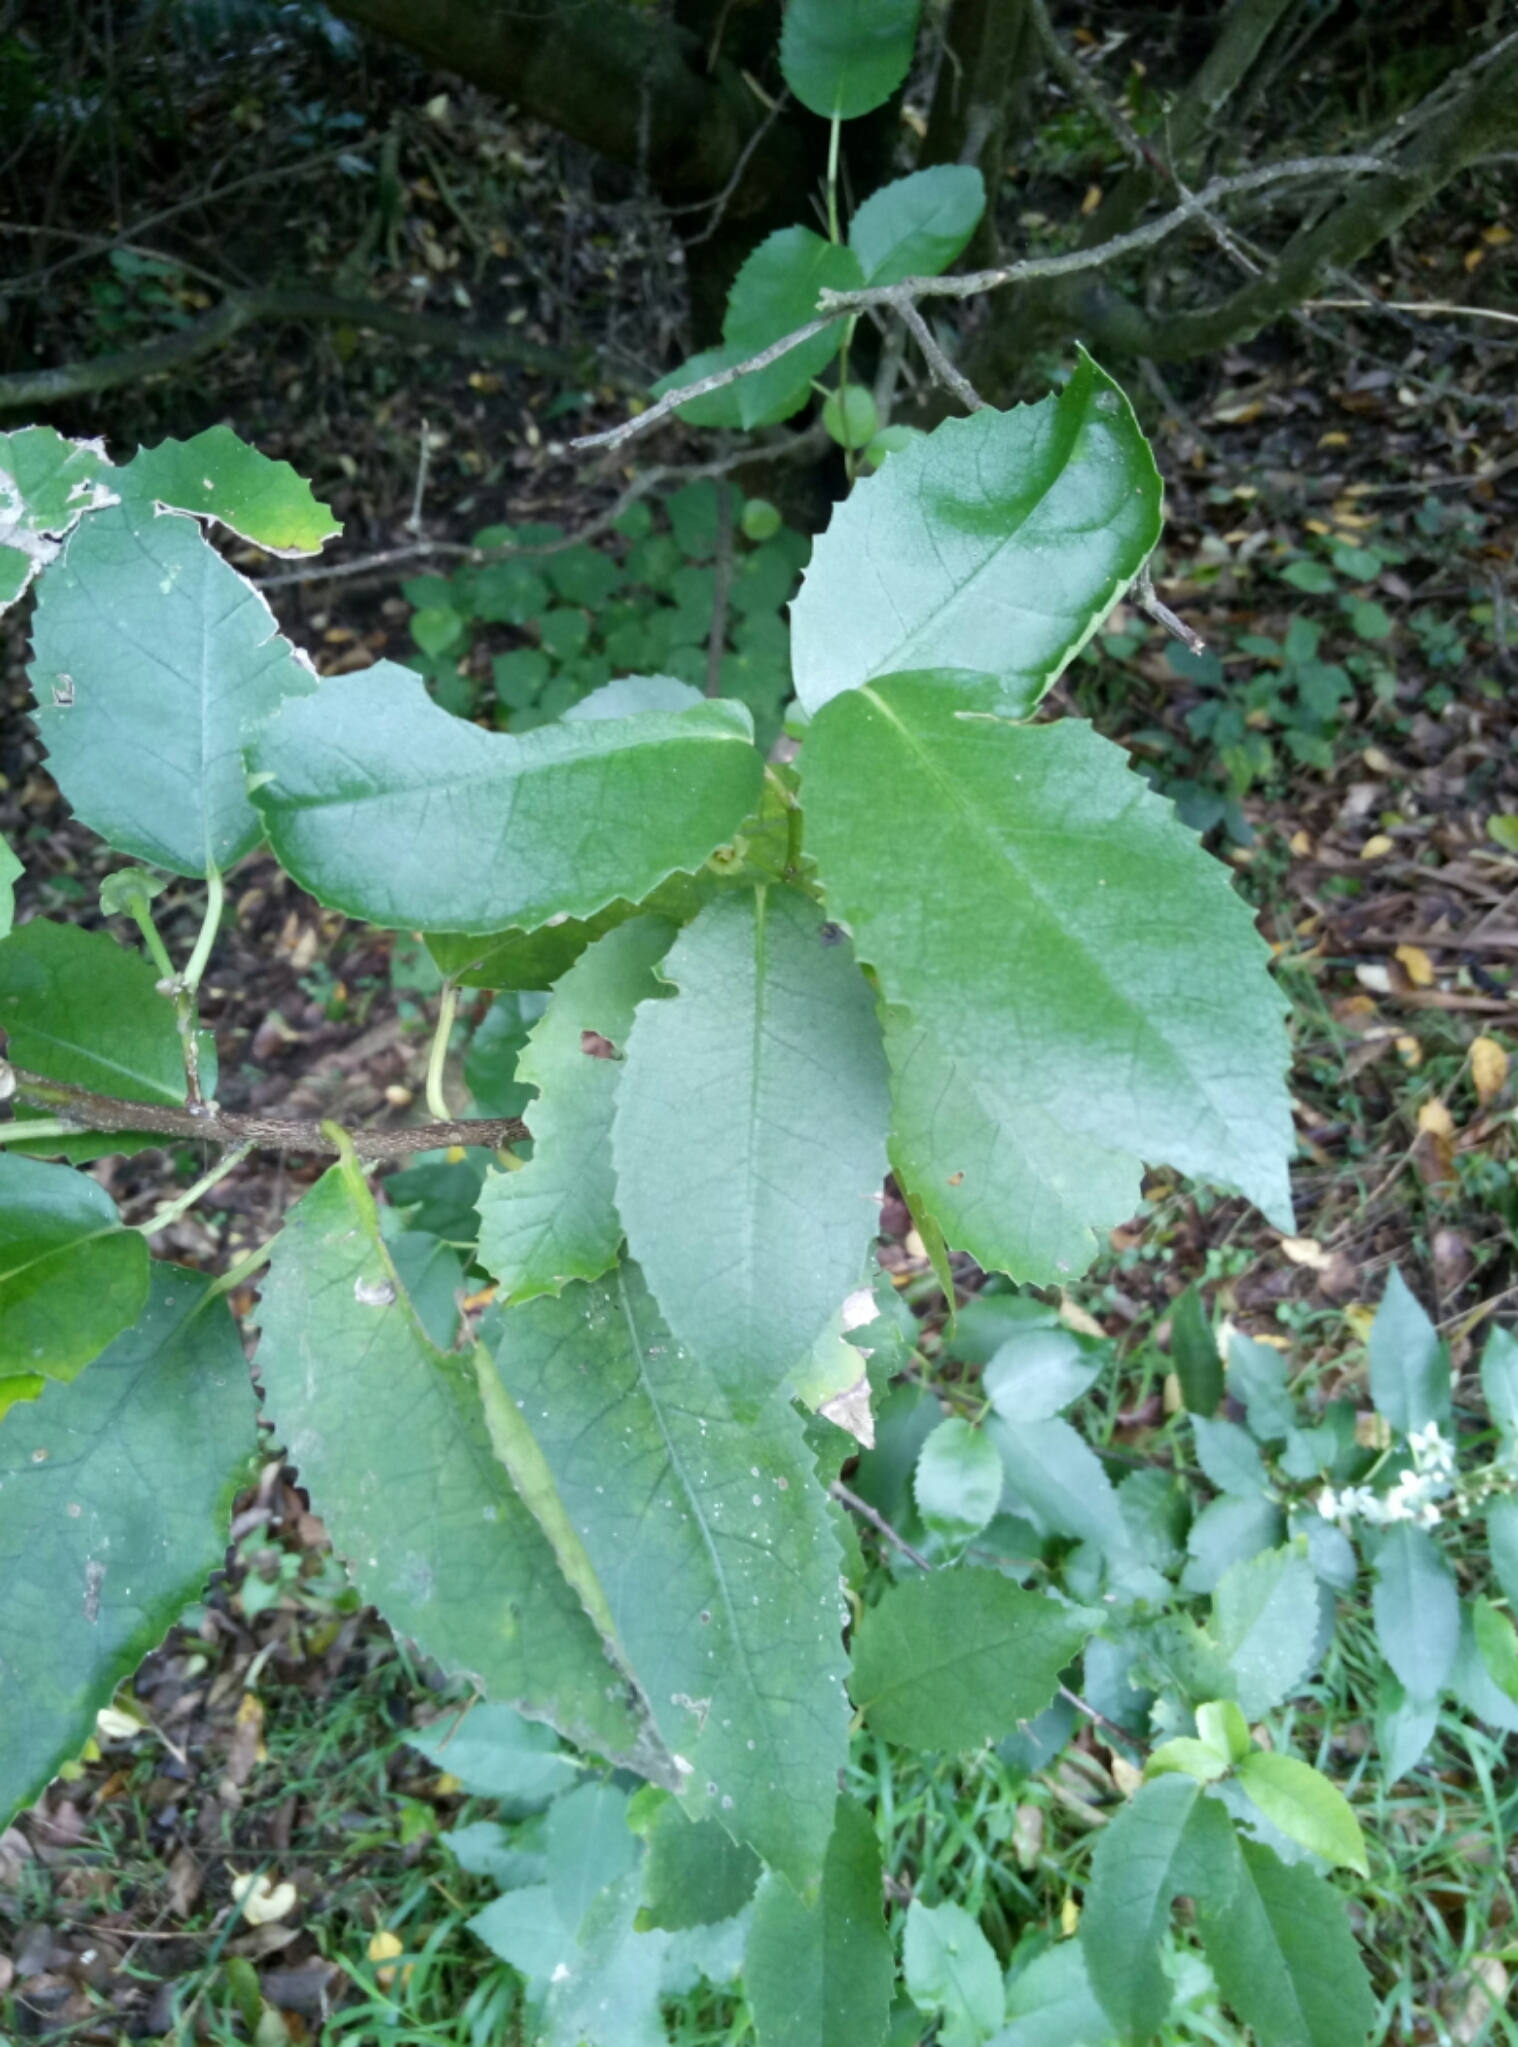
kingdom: Plantae
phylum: Tracheophyta
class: Magnoliopsida
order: Malvales
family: Malvaceae
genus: Hoheria
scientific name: Hoheria populnea
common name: Lacebark
